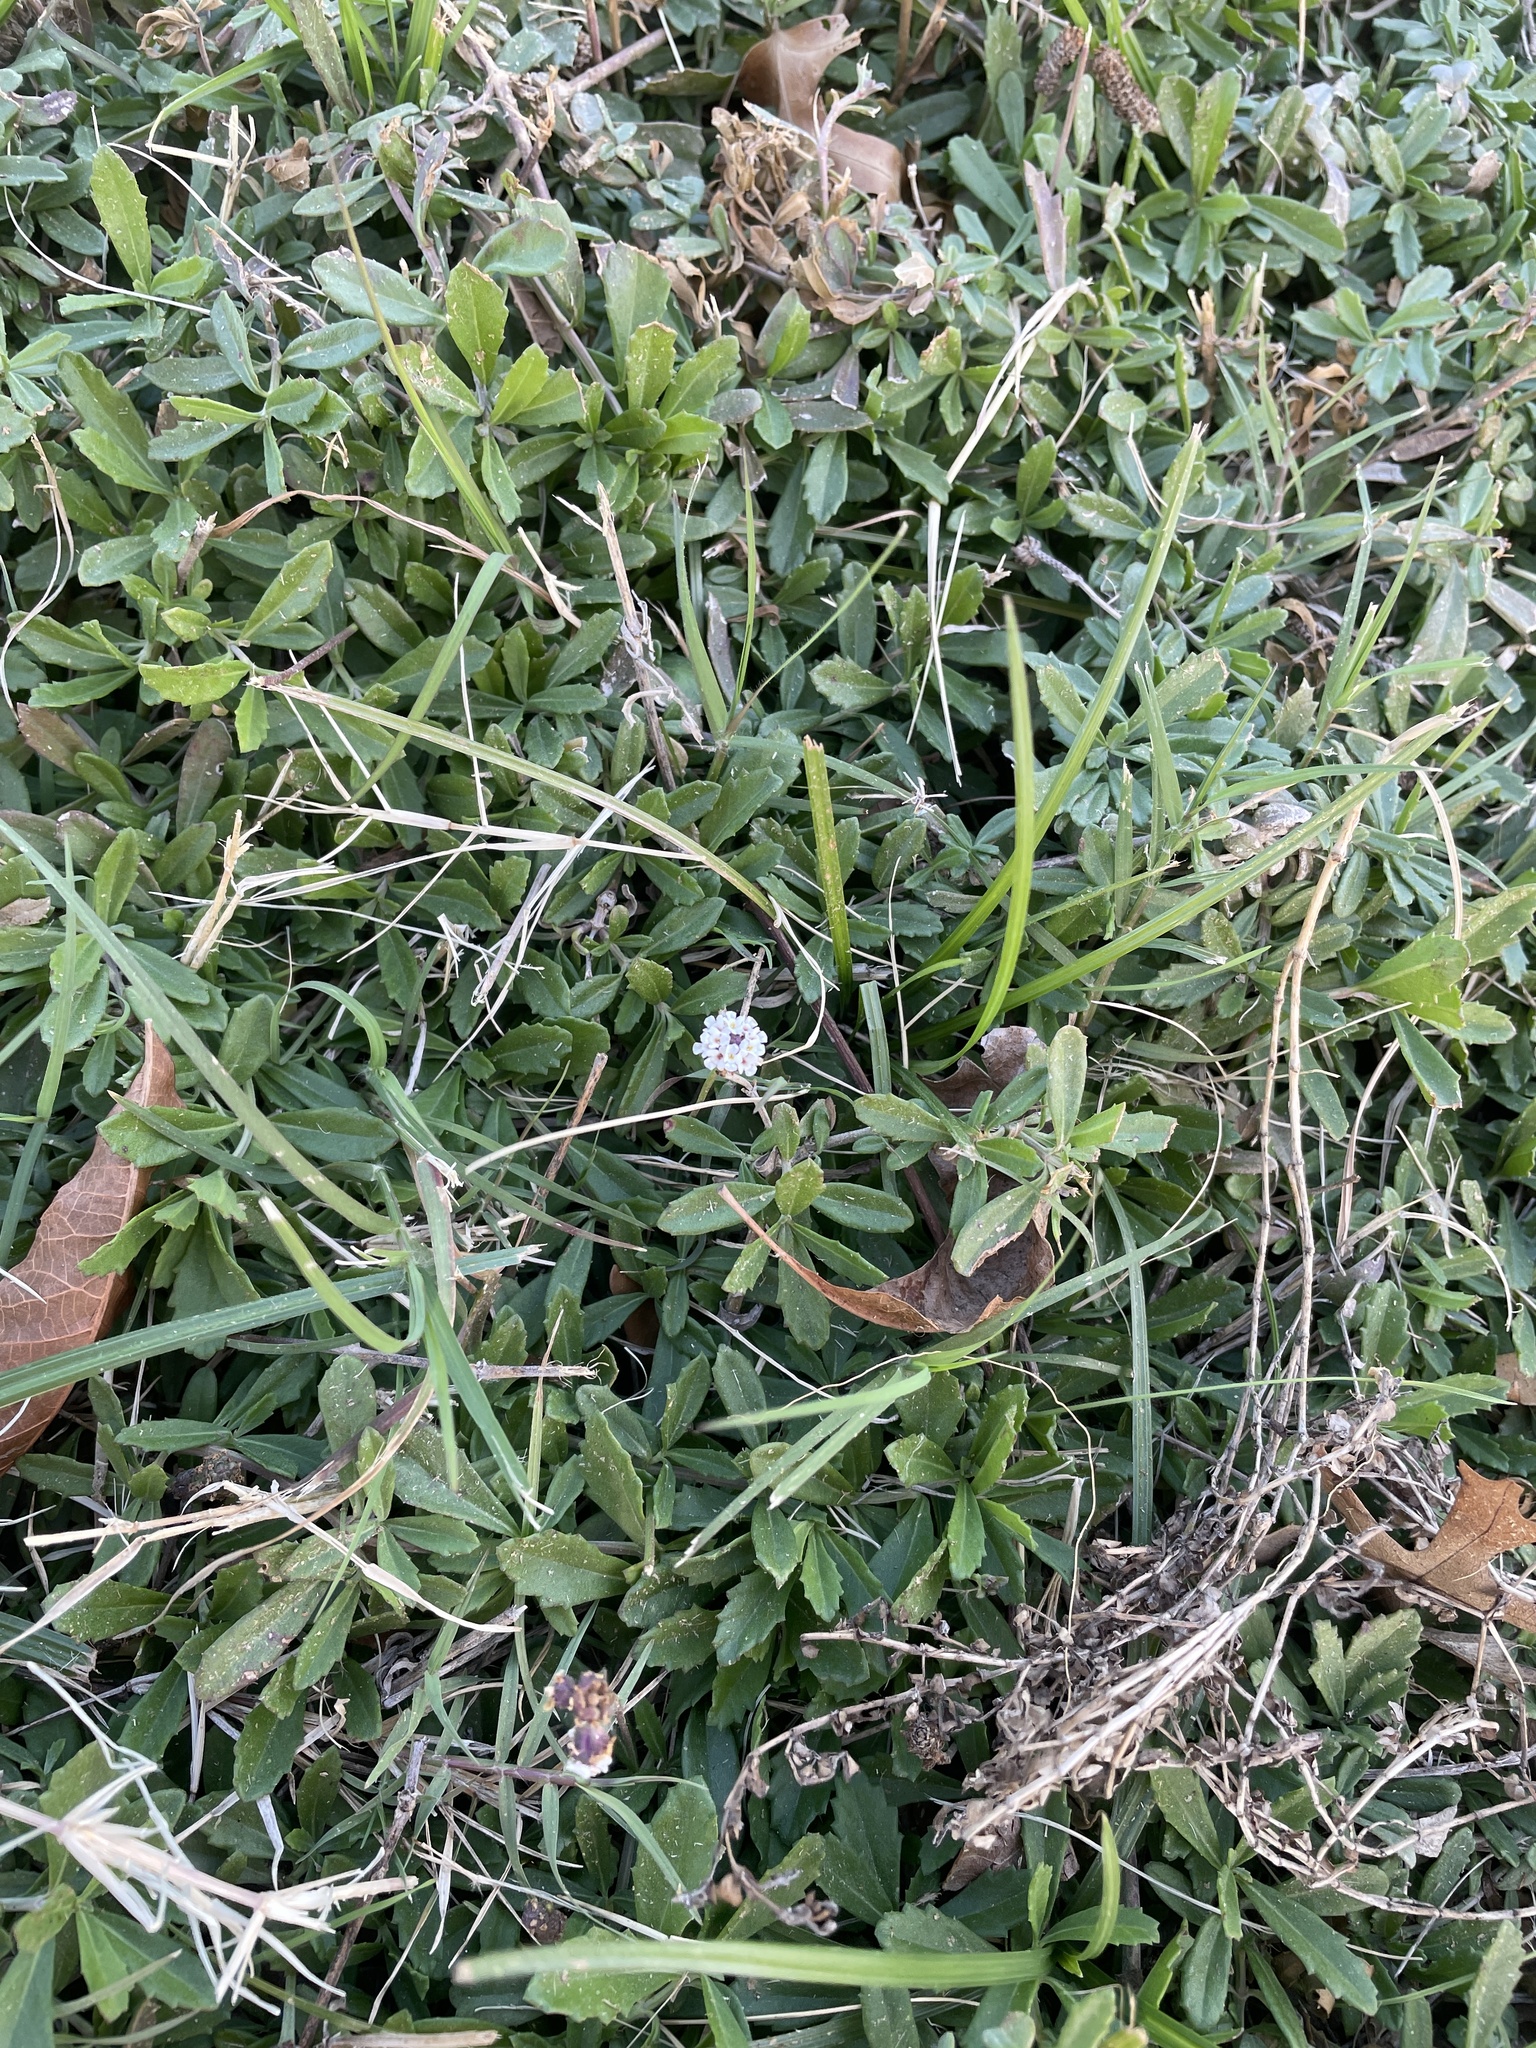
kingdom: Plantae
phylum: Tracheophyta
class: Magnoliopsida
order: Lamiales
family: Verbenaceae
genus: Phyla
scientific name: Phyla nodiflora
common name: Frogfruit
